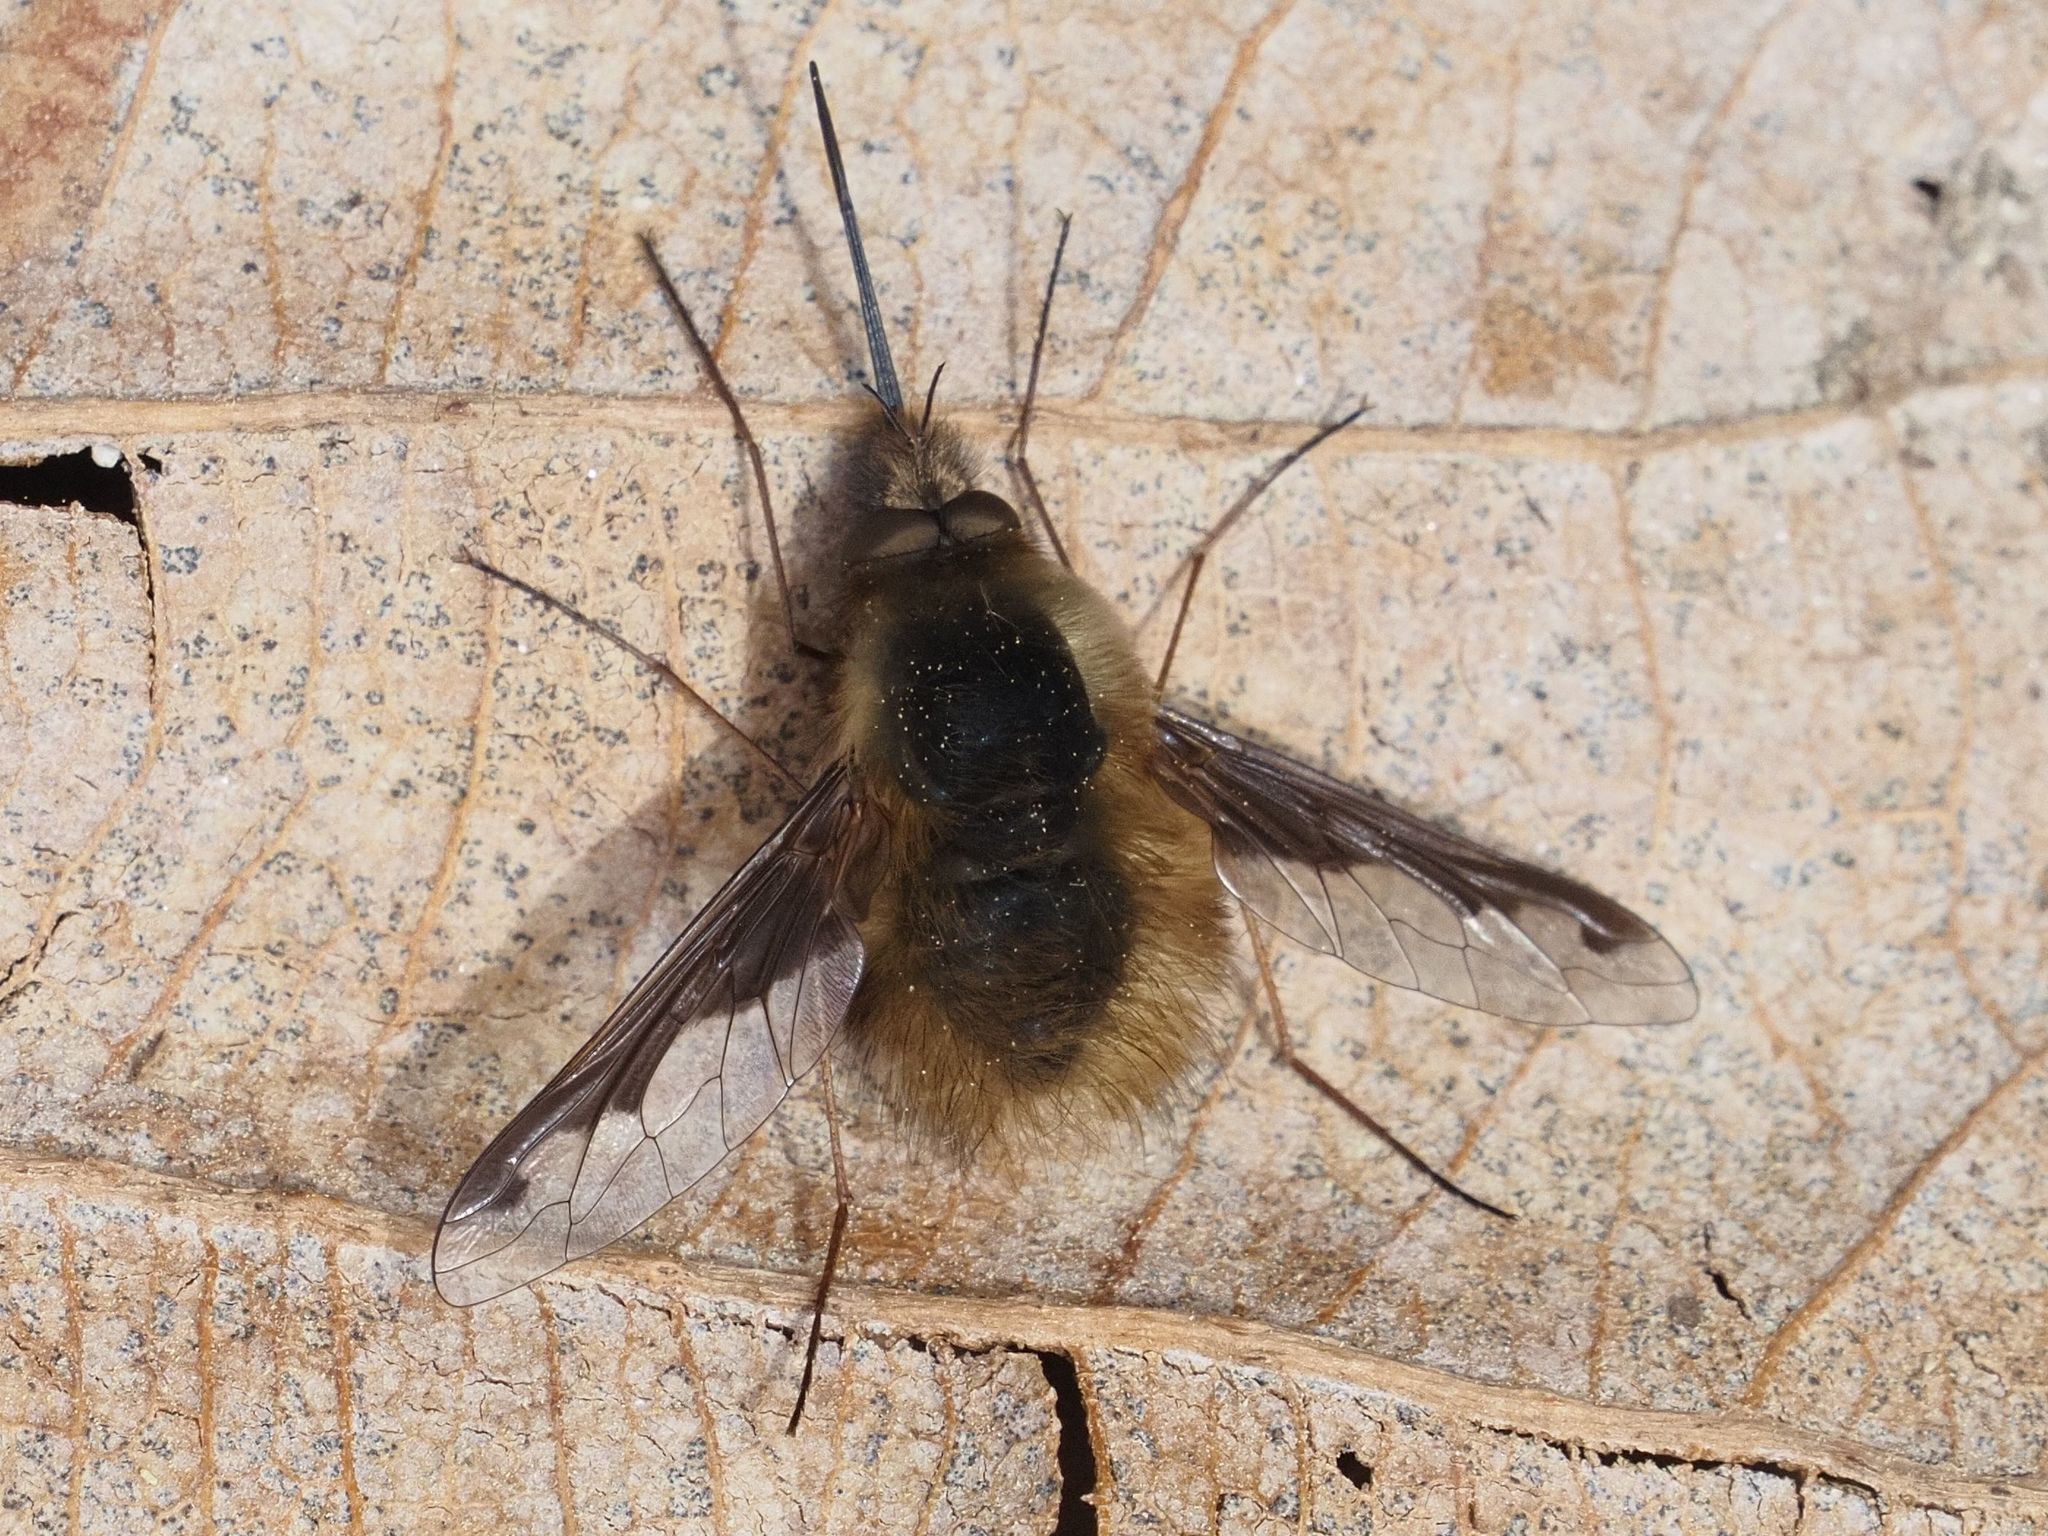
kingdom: Animalia
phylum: Arthropoda
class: Insecta
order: Diptera
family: Bombyliidae
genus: Bombylius
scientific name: Bombylius major
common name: Bee fly
